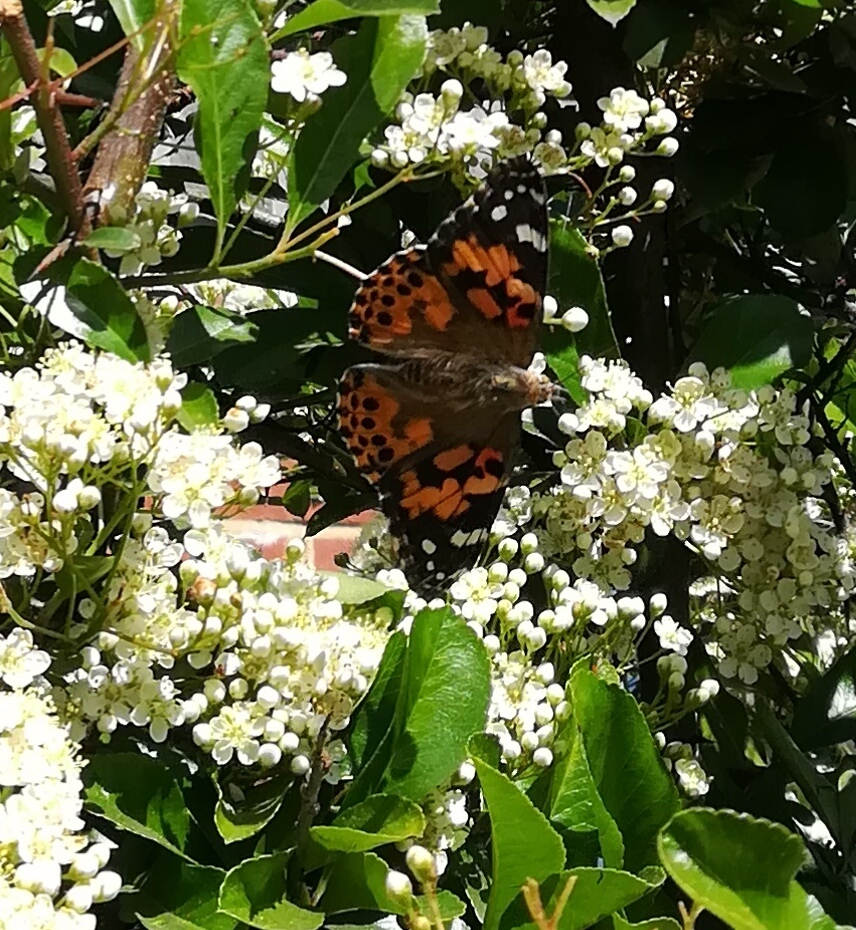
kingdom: Animalia
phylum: Arthropoda
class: Insecta
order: Lepidoptera
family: Nymphalidae
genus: Vanessa
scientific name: Vanessa cardui
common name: Painted lady
